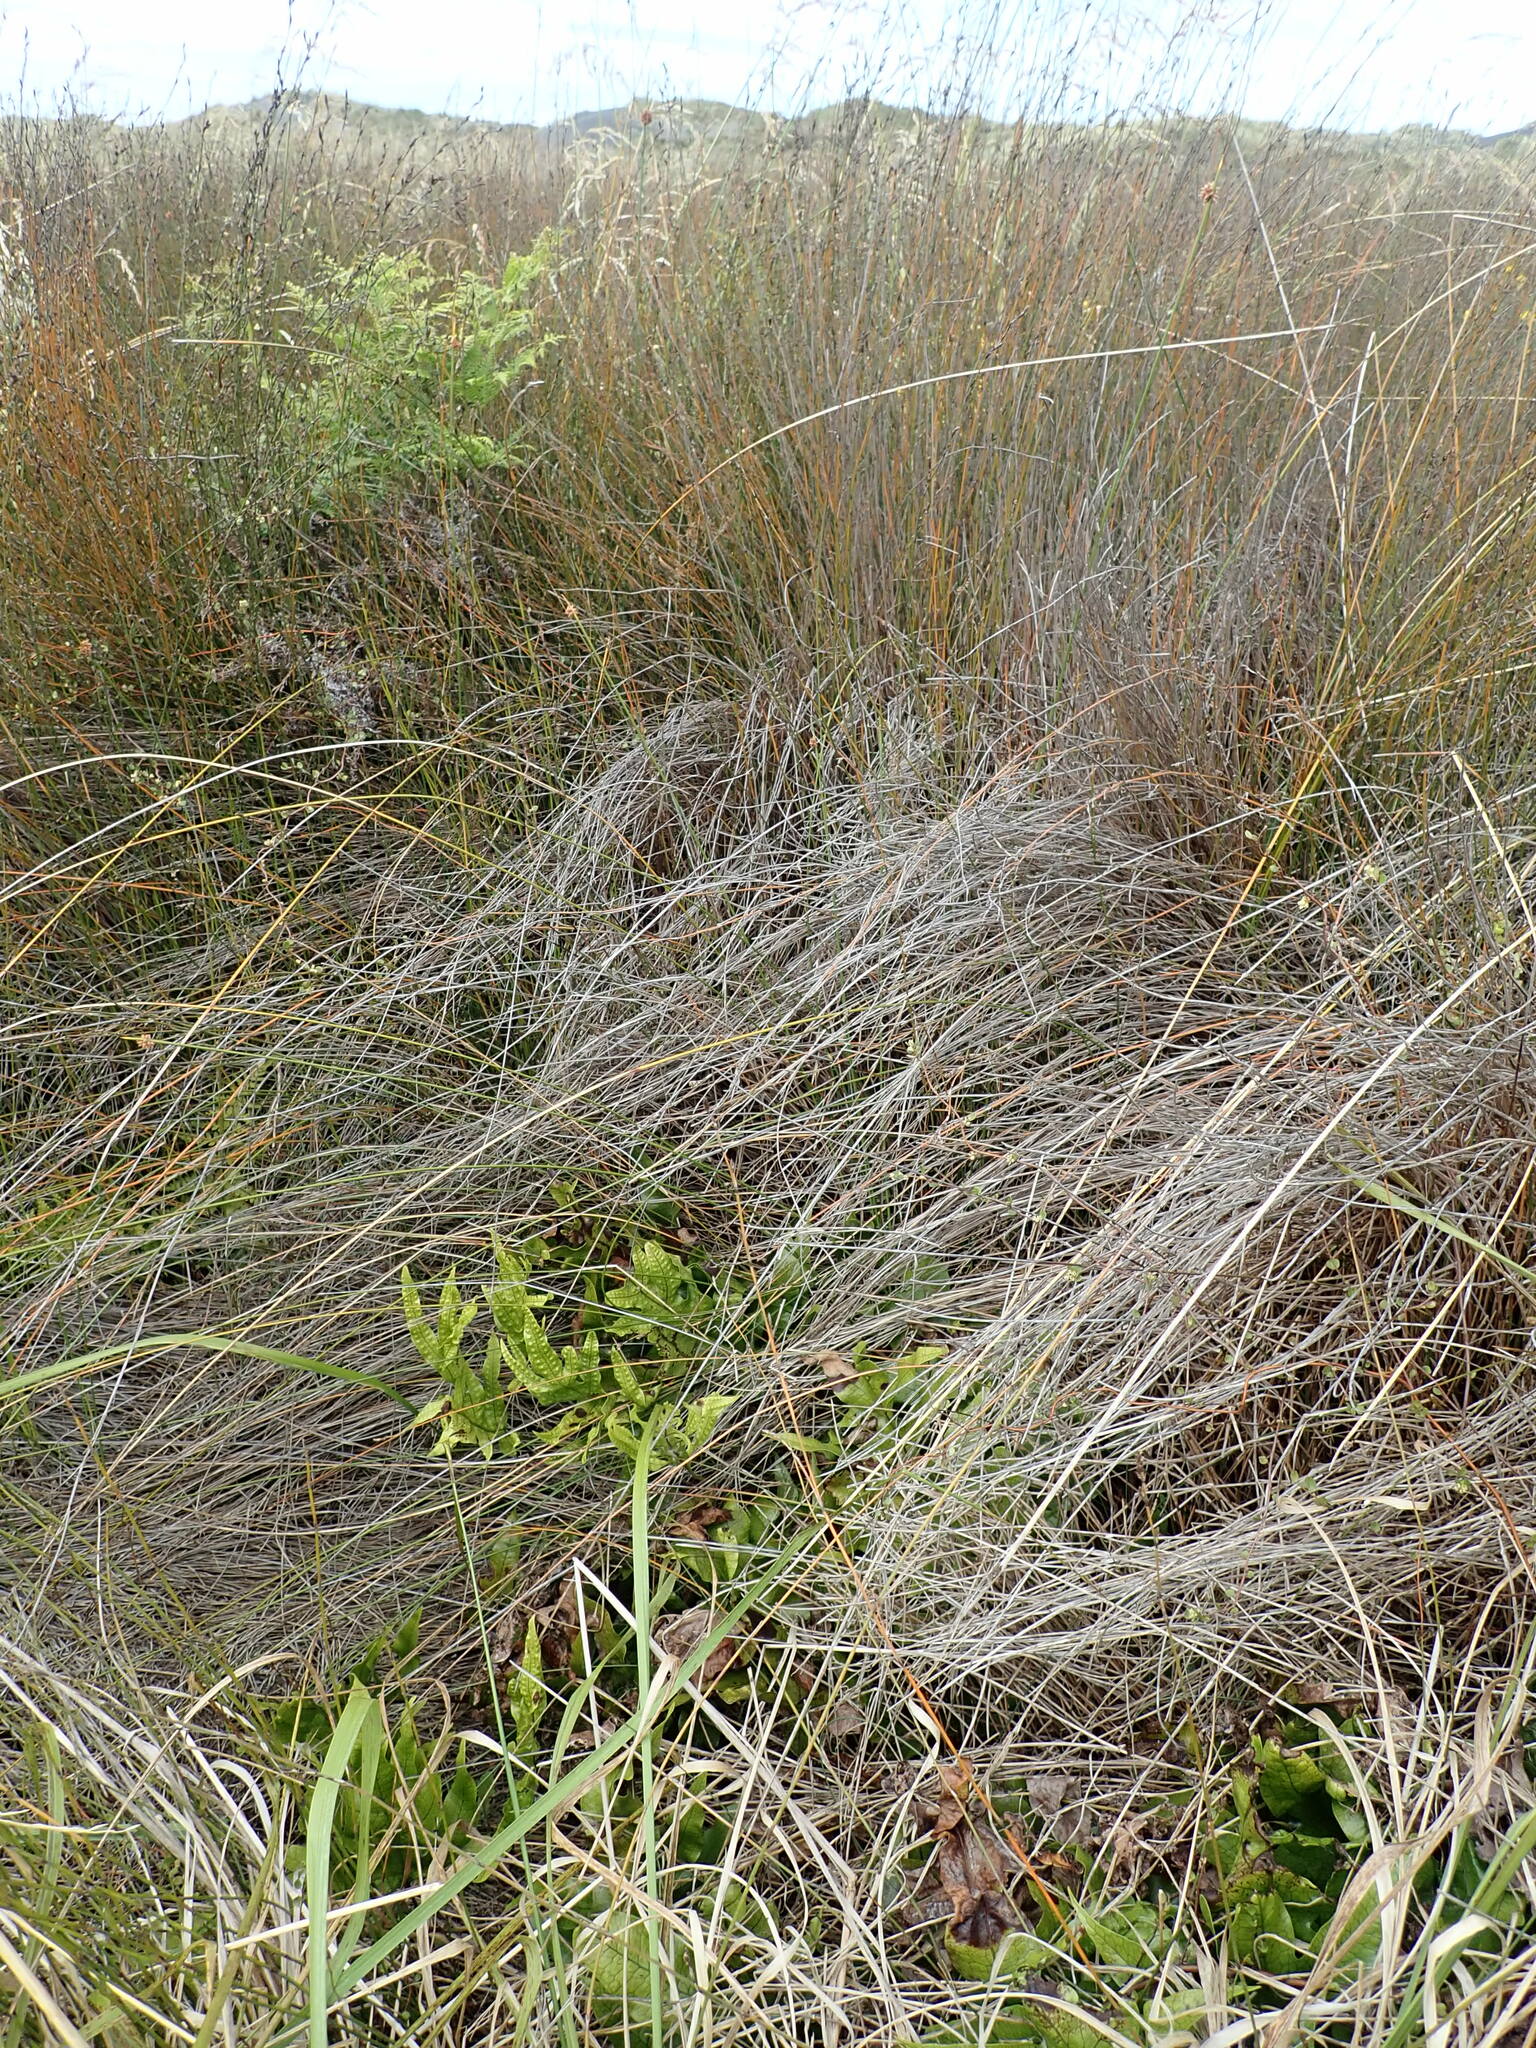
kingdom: Plantae
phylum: Tracheophyta
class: Polypodiopsida
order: Polypodiales
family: Polypodiaceae
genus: Lecanopteris
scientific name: Lecanopteris pustulata
